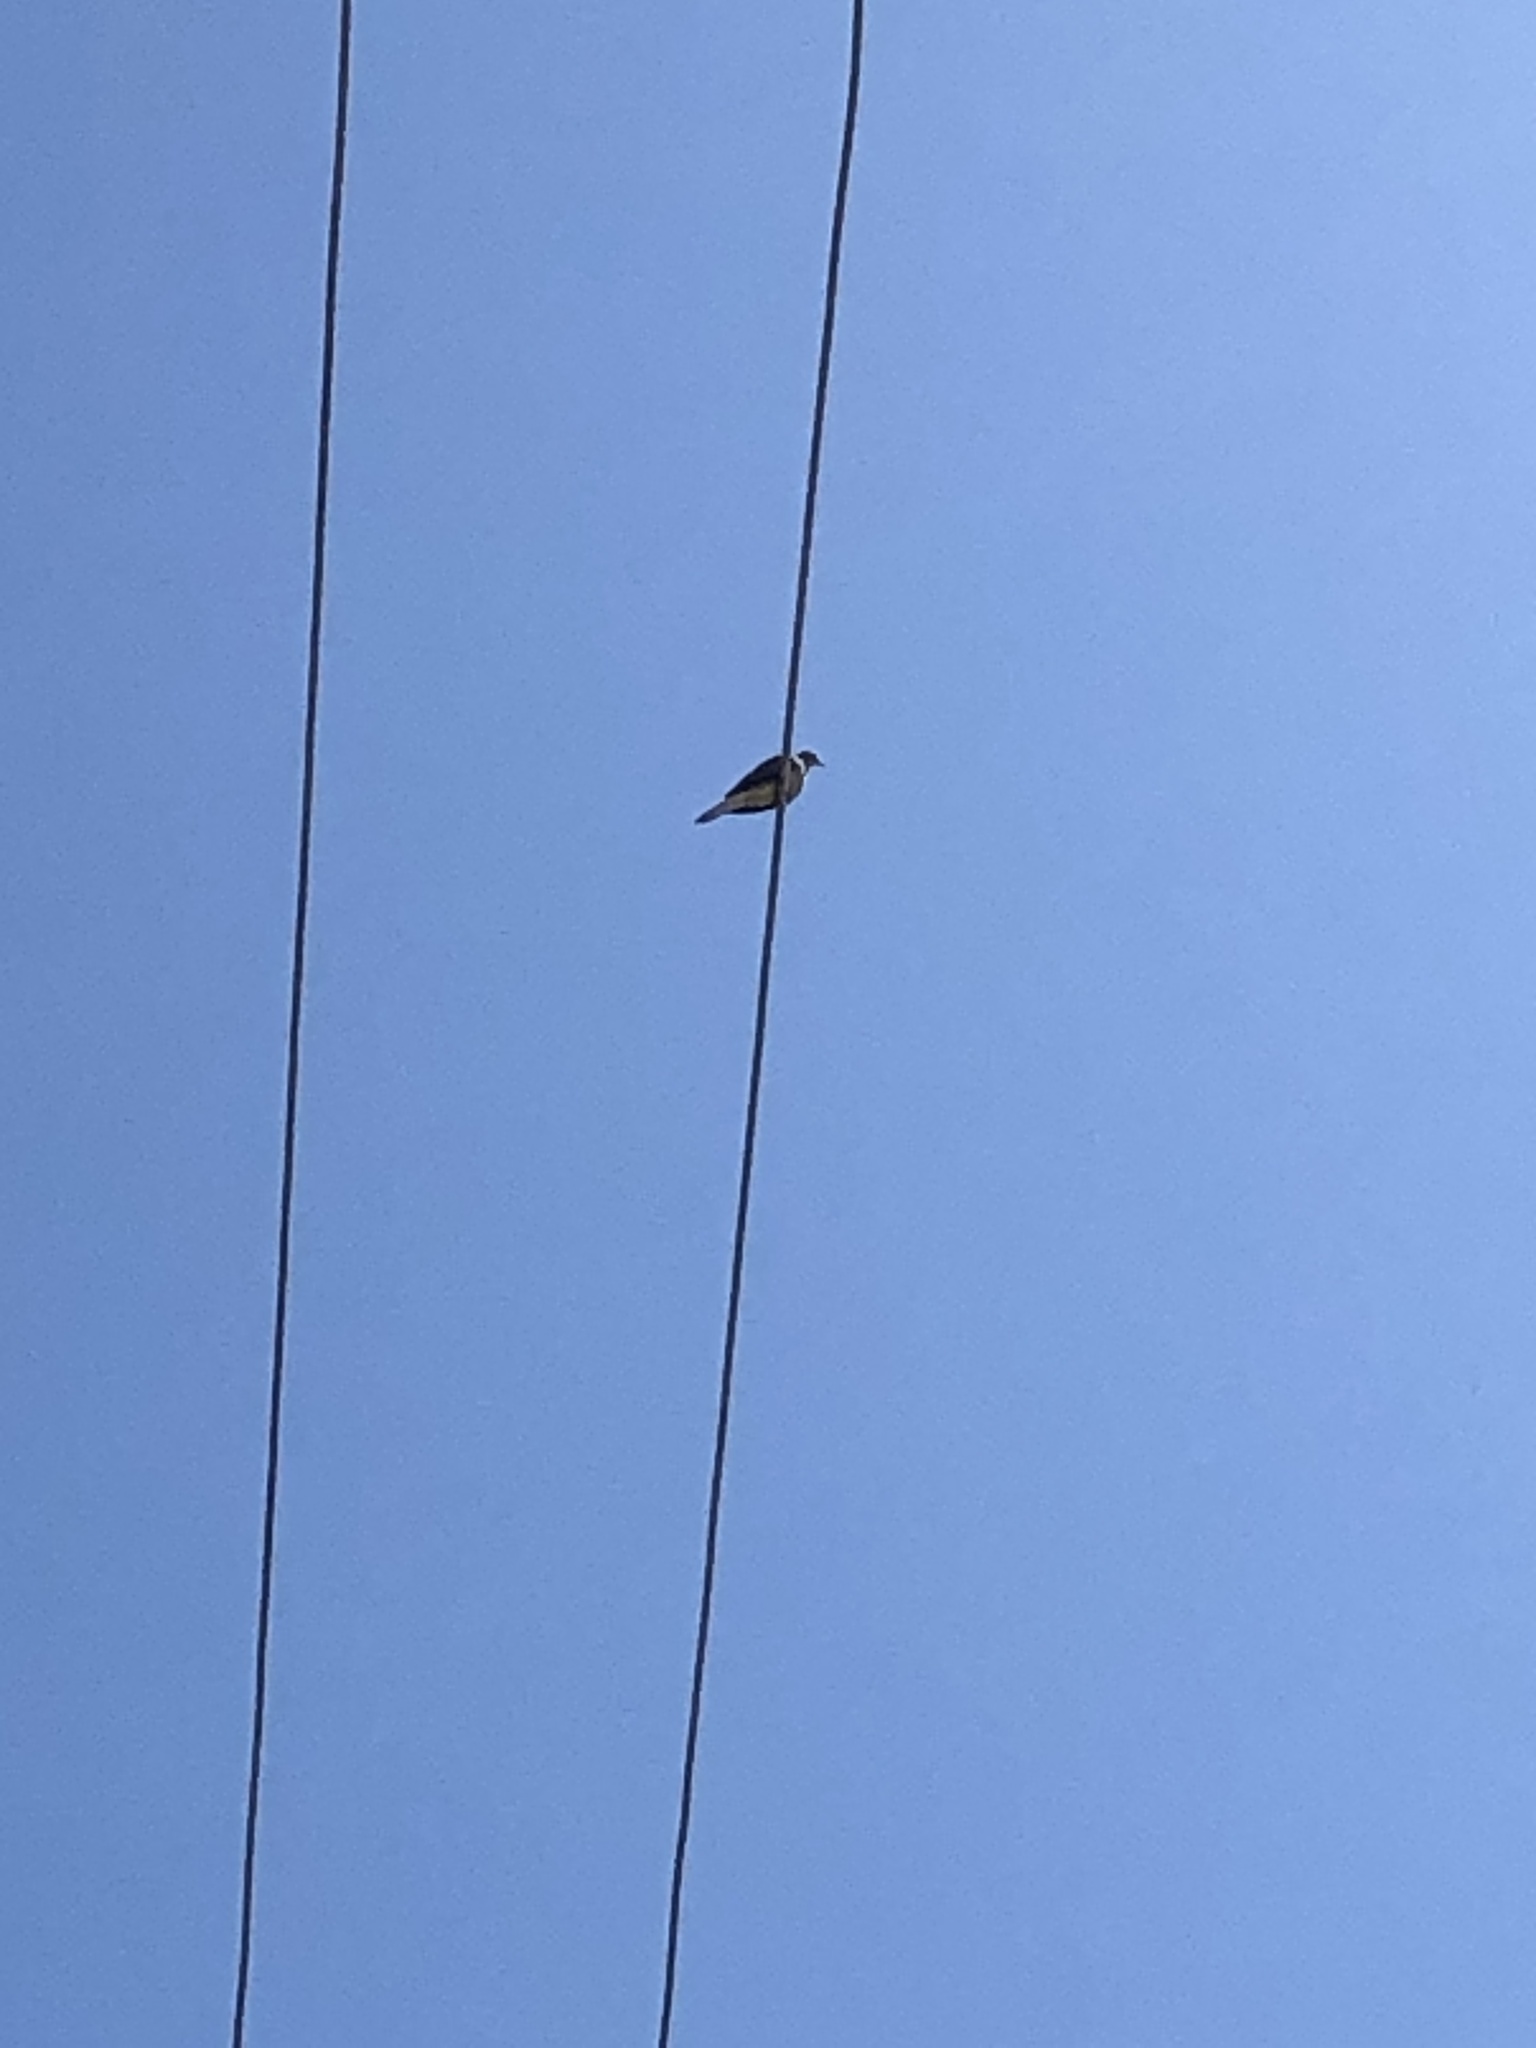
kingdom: Animalia
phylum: Chordata
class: Aves
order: Columbiformes
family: Columbidae
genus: Zenaida
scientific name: Zenaida macroura
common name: Mourning dove
